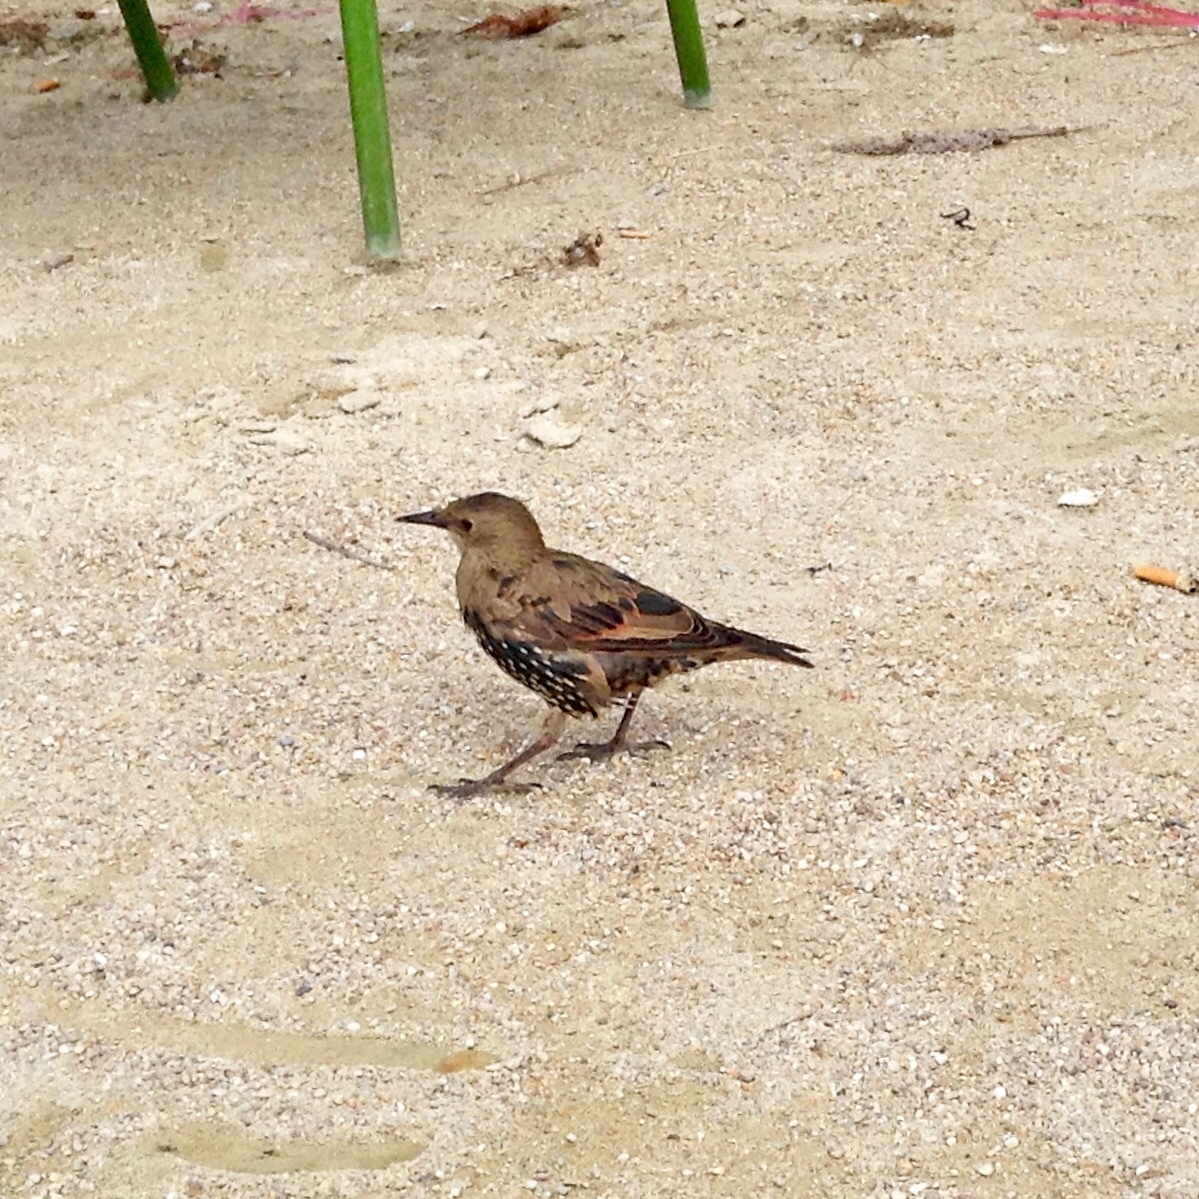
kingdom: Animalia
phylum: Chordata
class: Aves
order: Passeriformes
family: Sturnidae
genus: Sturnus
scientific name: Sturnus vulgaris
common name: Common starling
